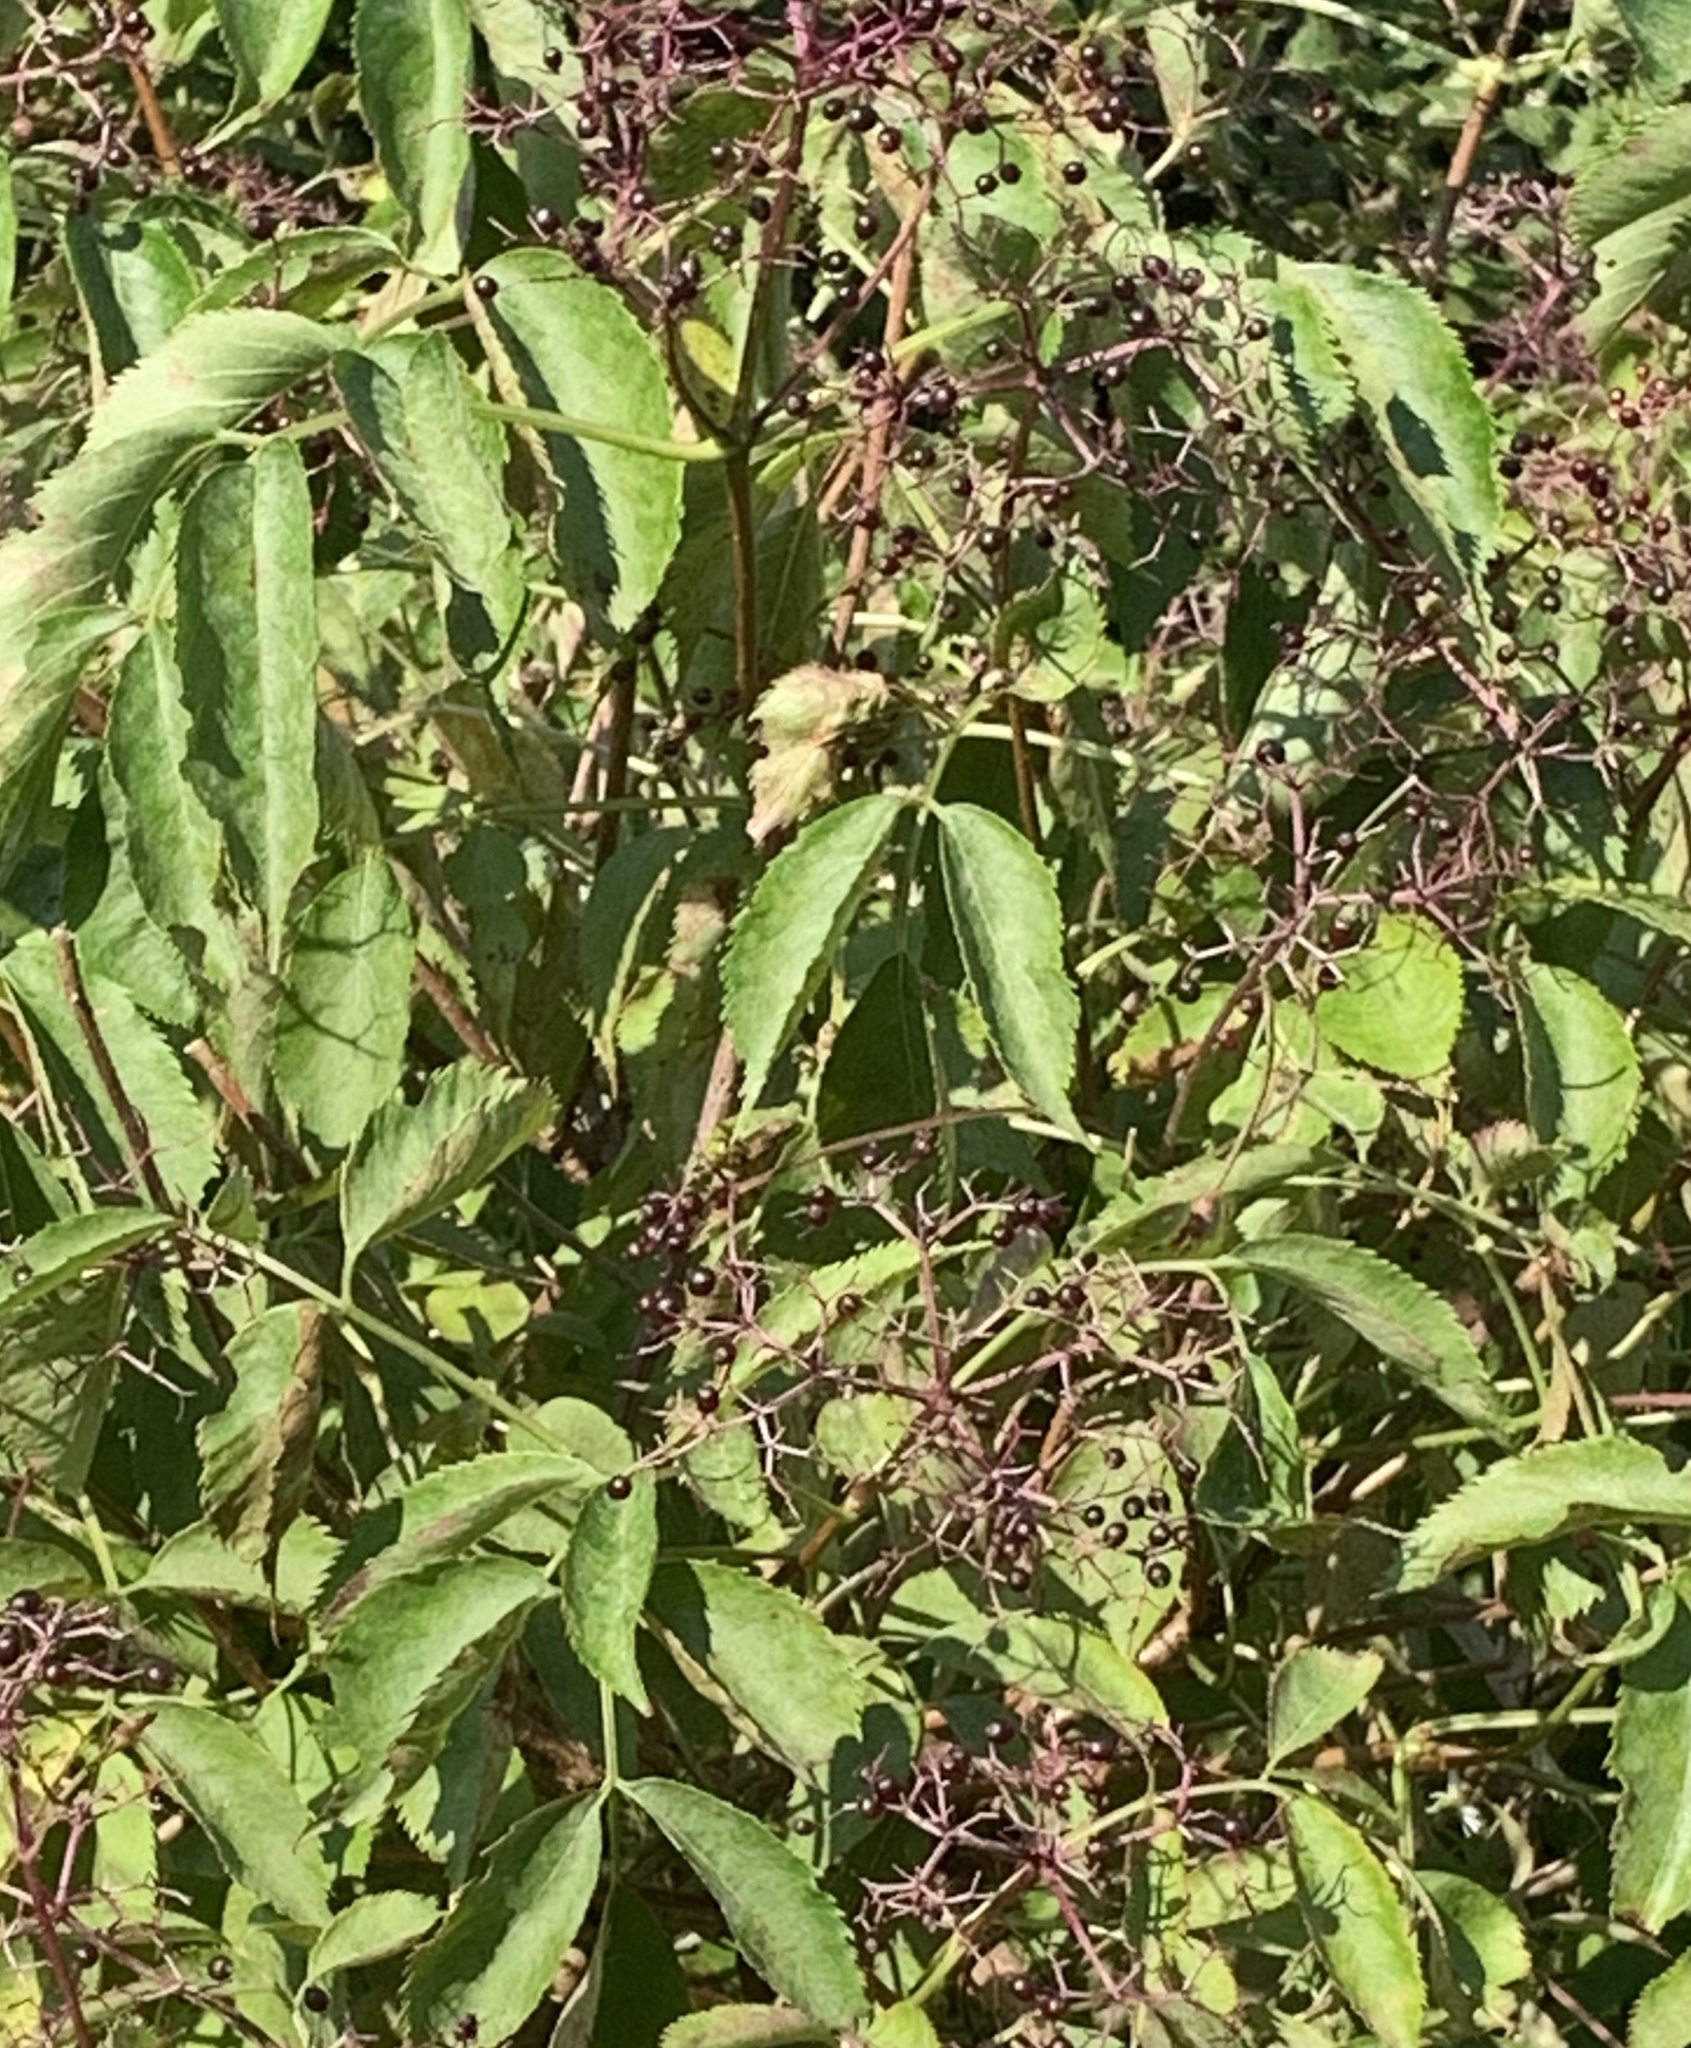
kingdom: Plantae
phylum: Tracheophyta
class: Magnoliopsida
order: Dipsacales
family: Viburnaceae
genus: Sambucus
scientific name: Sambucus canadensis
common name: American elder
